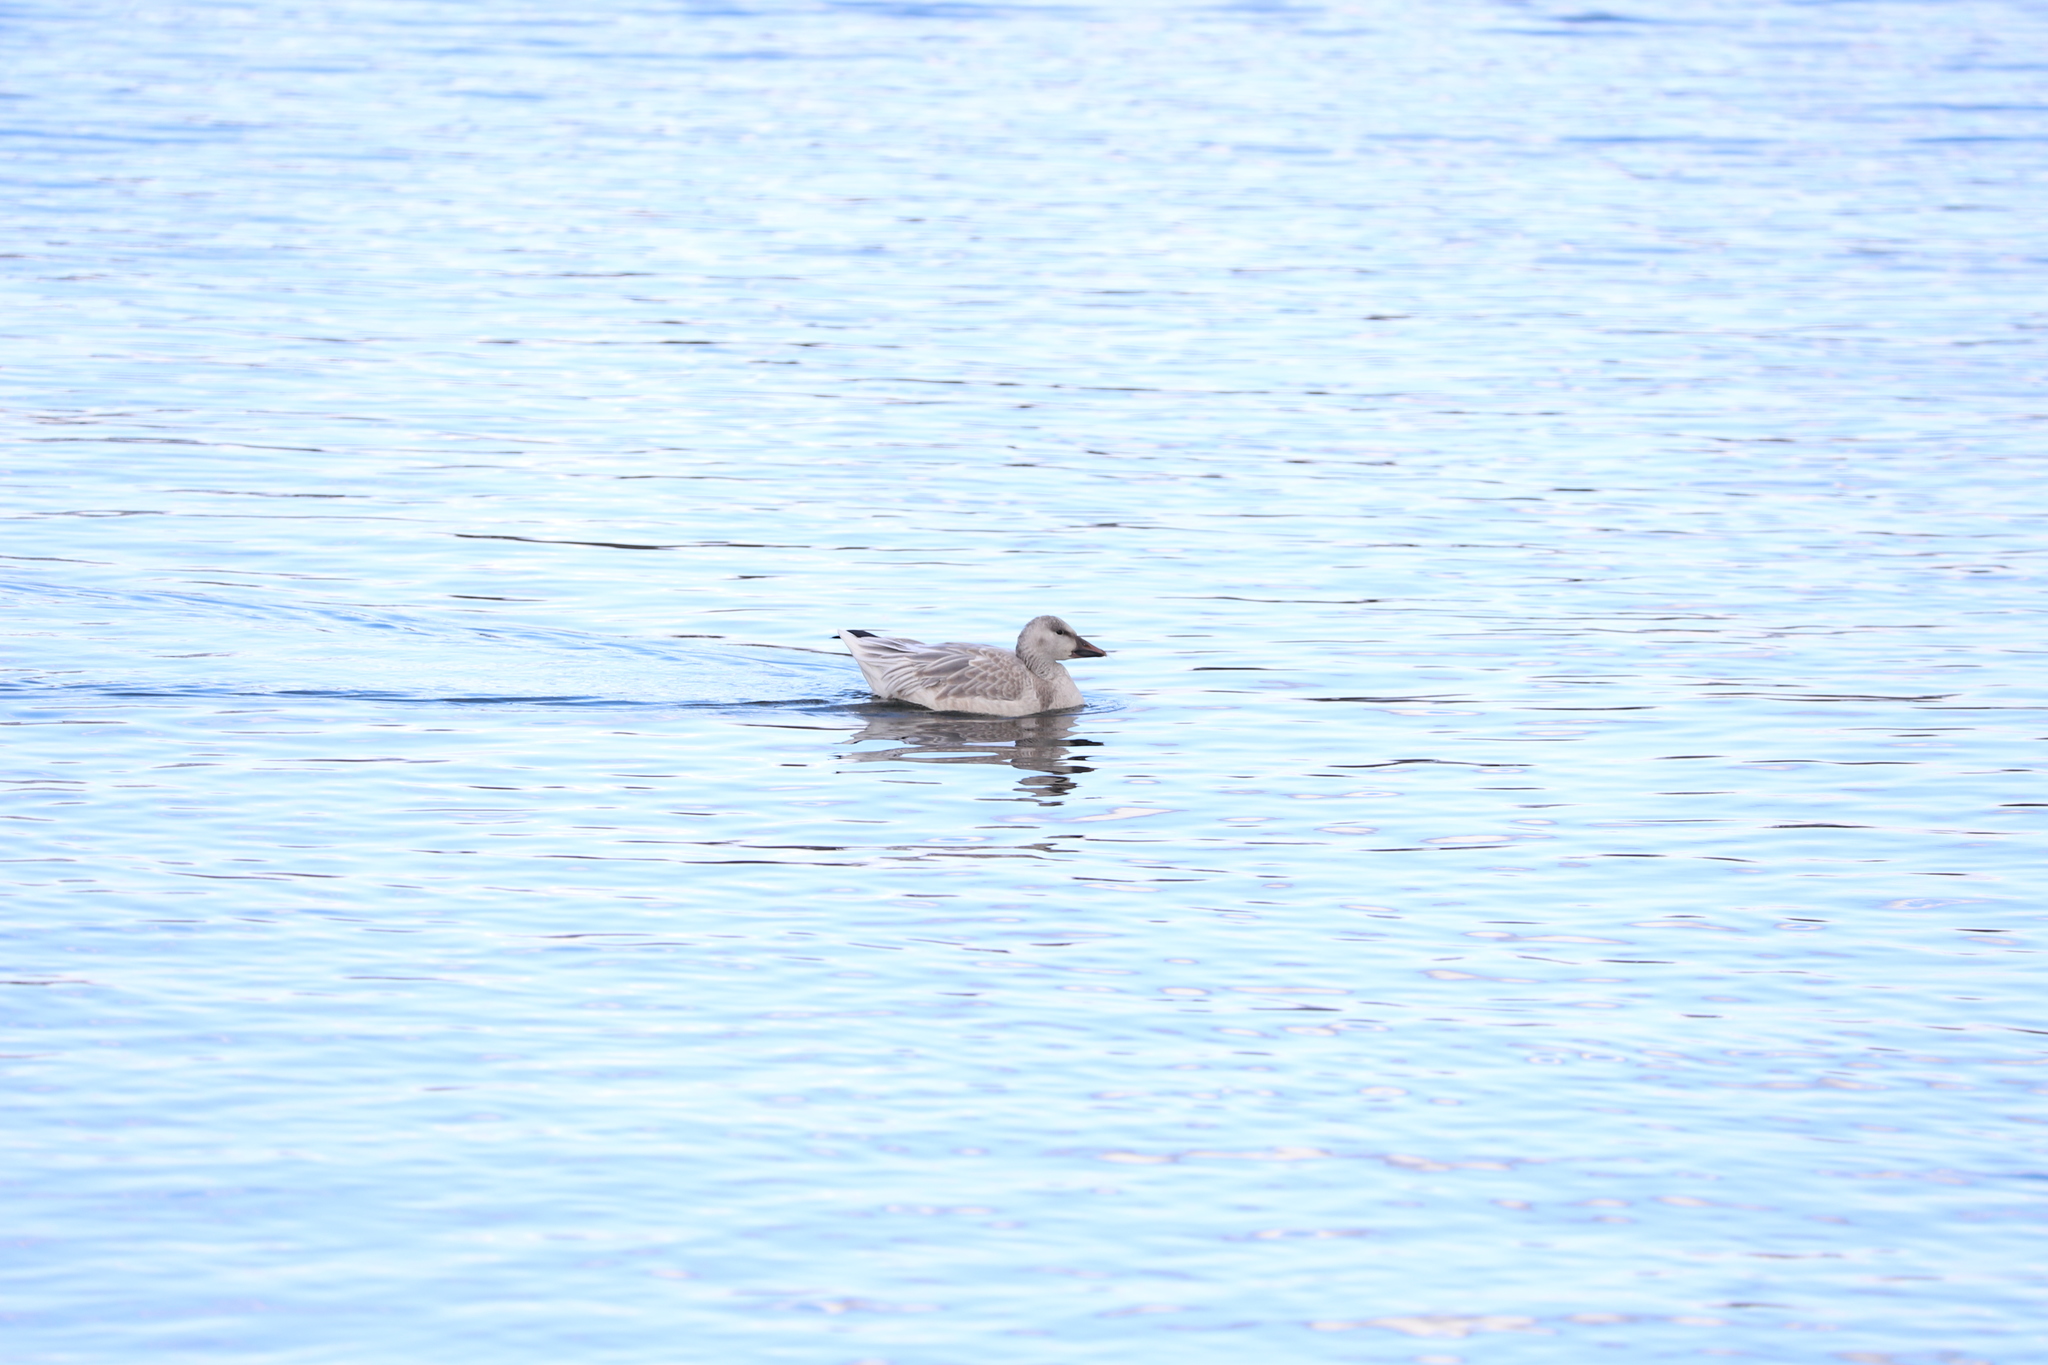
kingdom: Animalia
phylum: Chordata
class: Aves
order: Anseriformes
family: Anatidae
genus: Anser
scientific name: Anser caerulescens
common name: Snow goose
